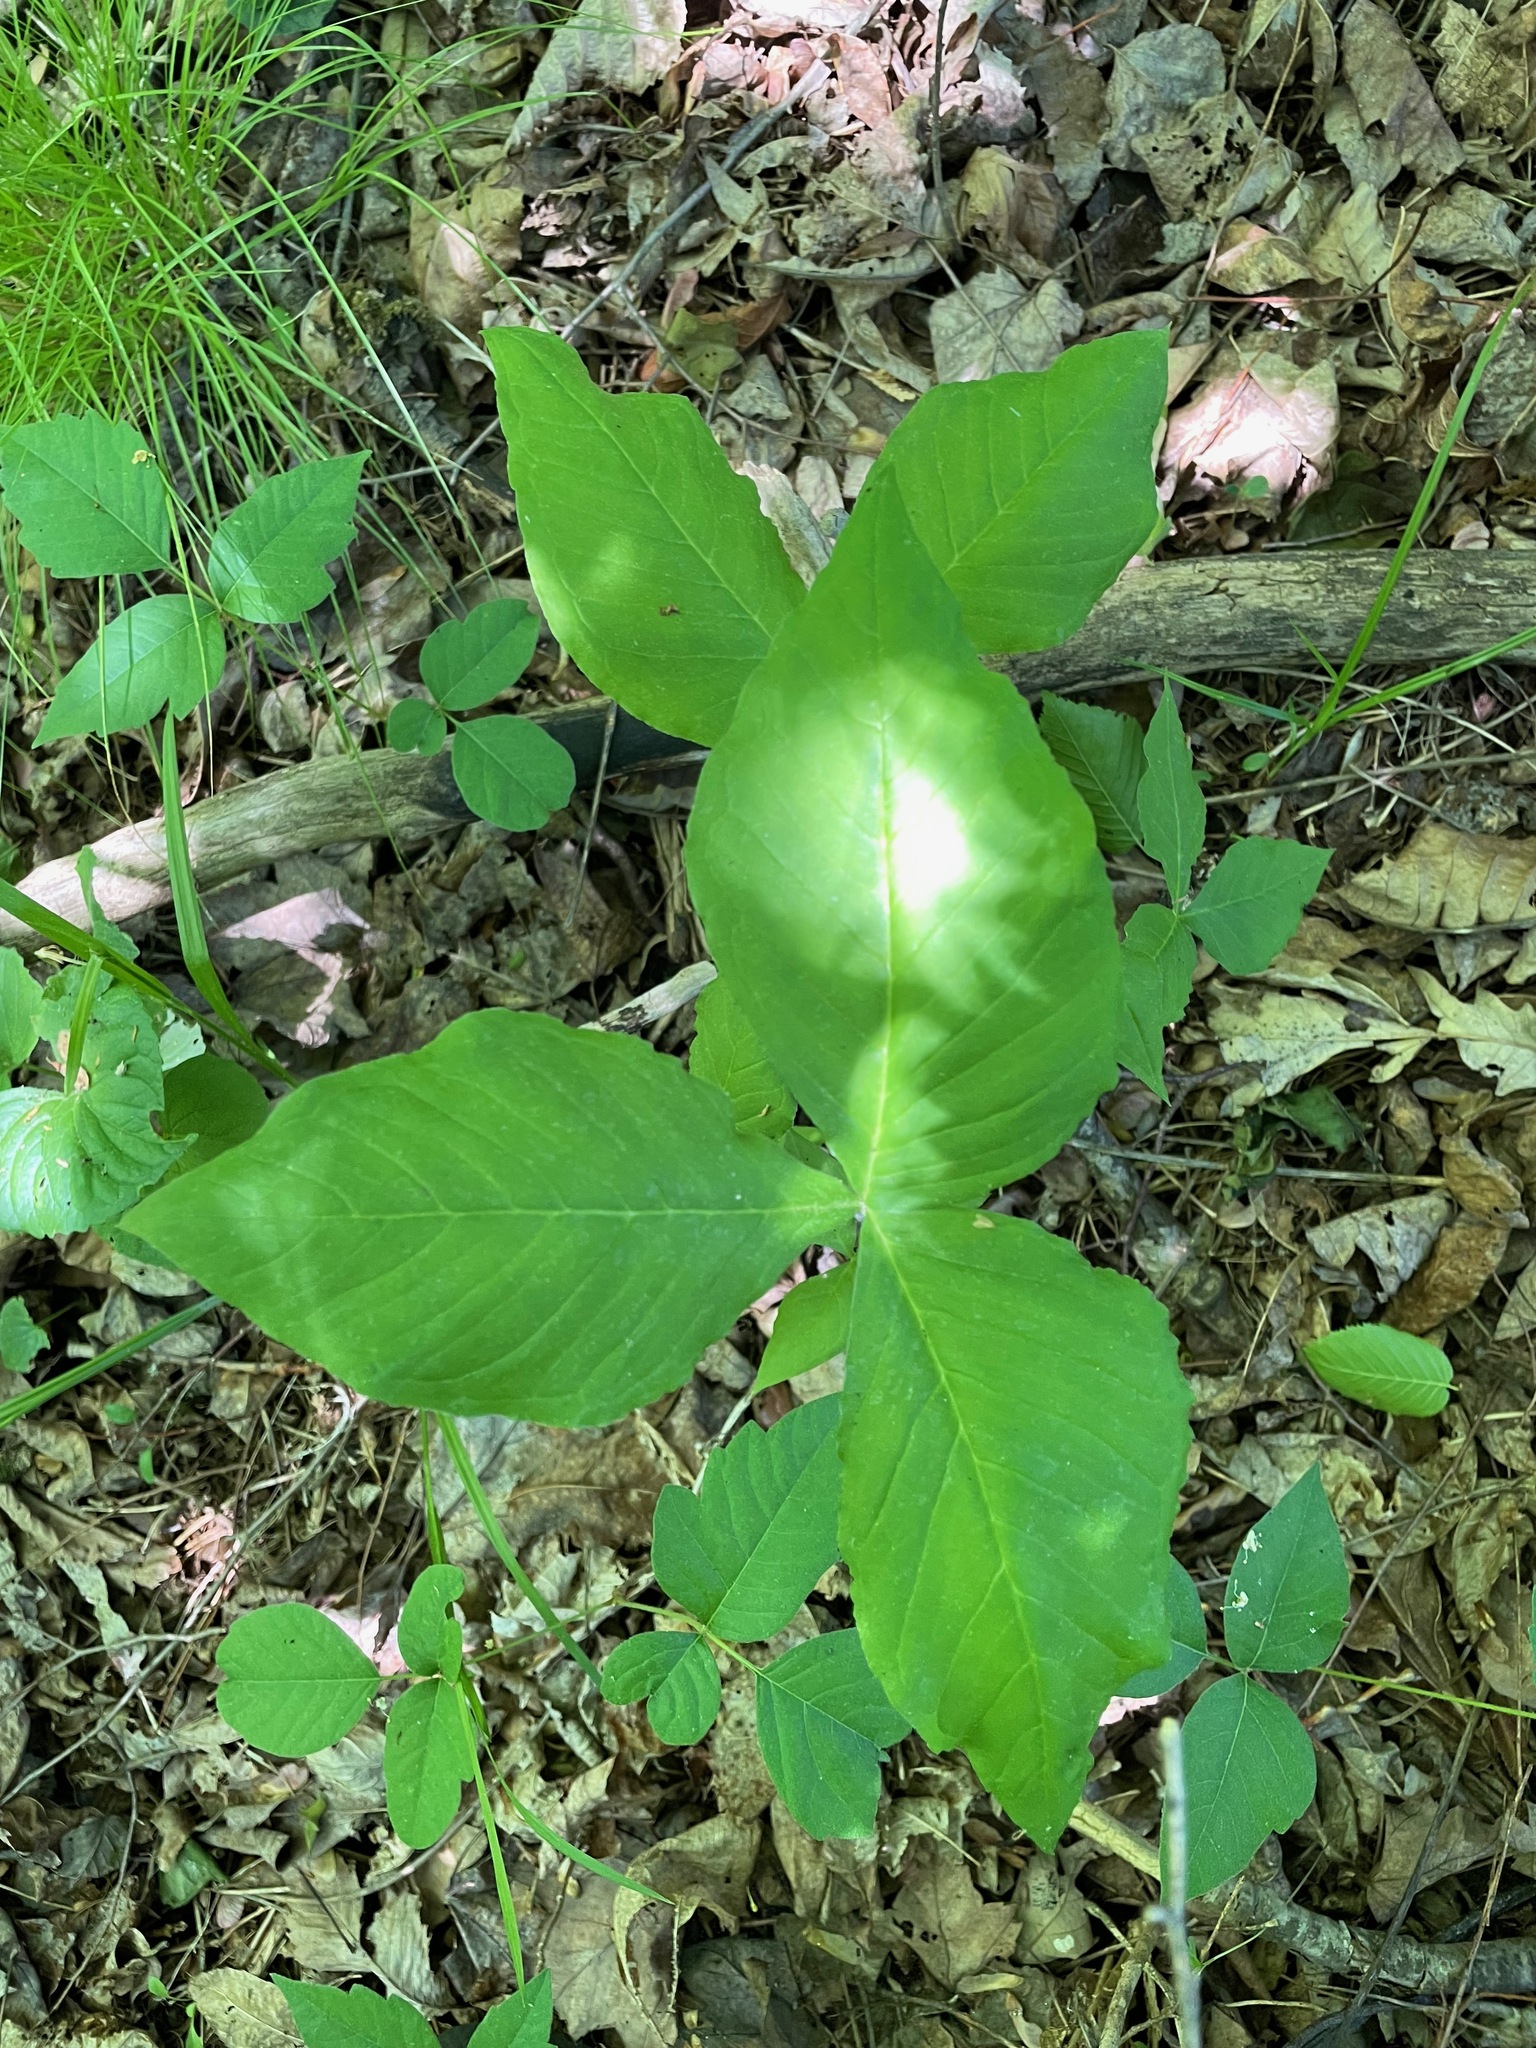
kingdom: Plantae
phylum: Tracheophyta
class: Liliopsida
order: Alismatales
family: Araceae
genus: Arisaema
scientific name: Arisaema
